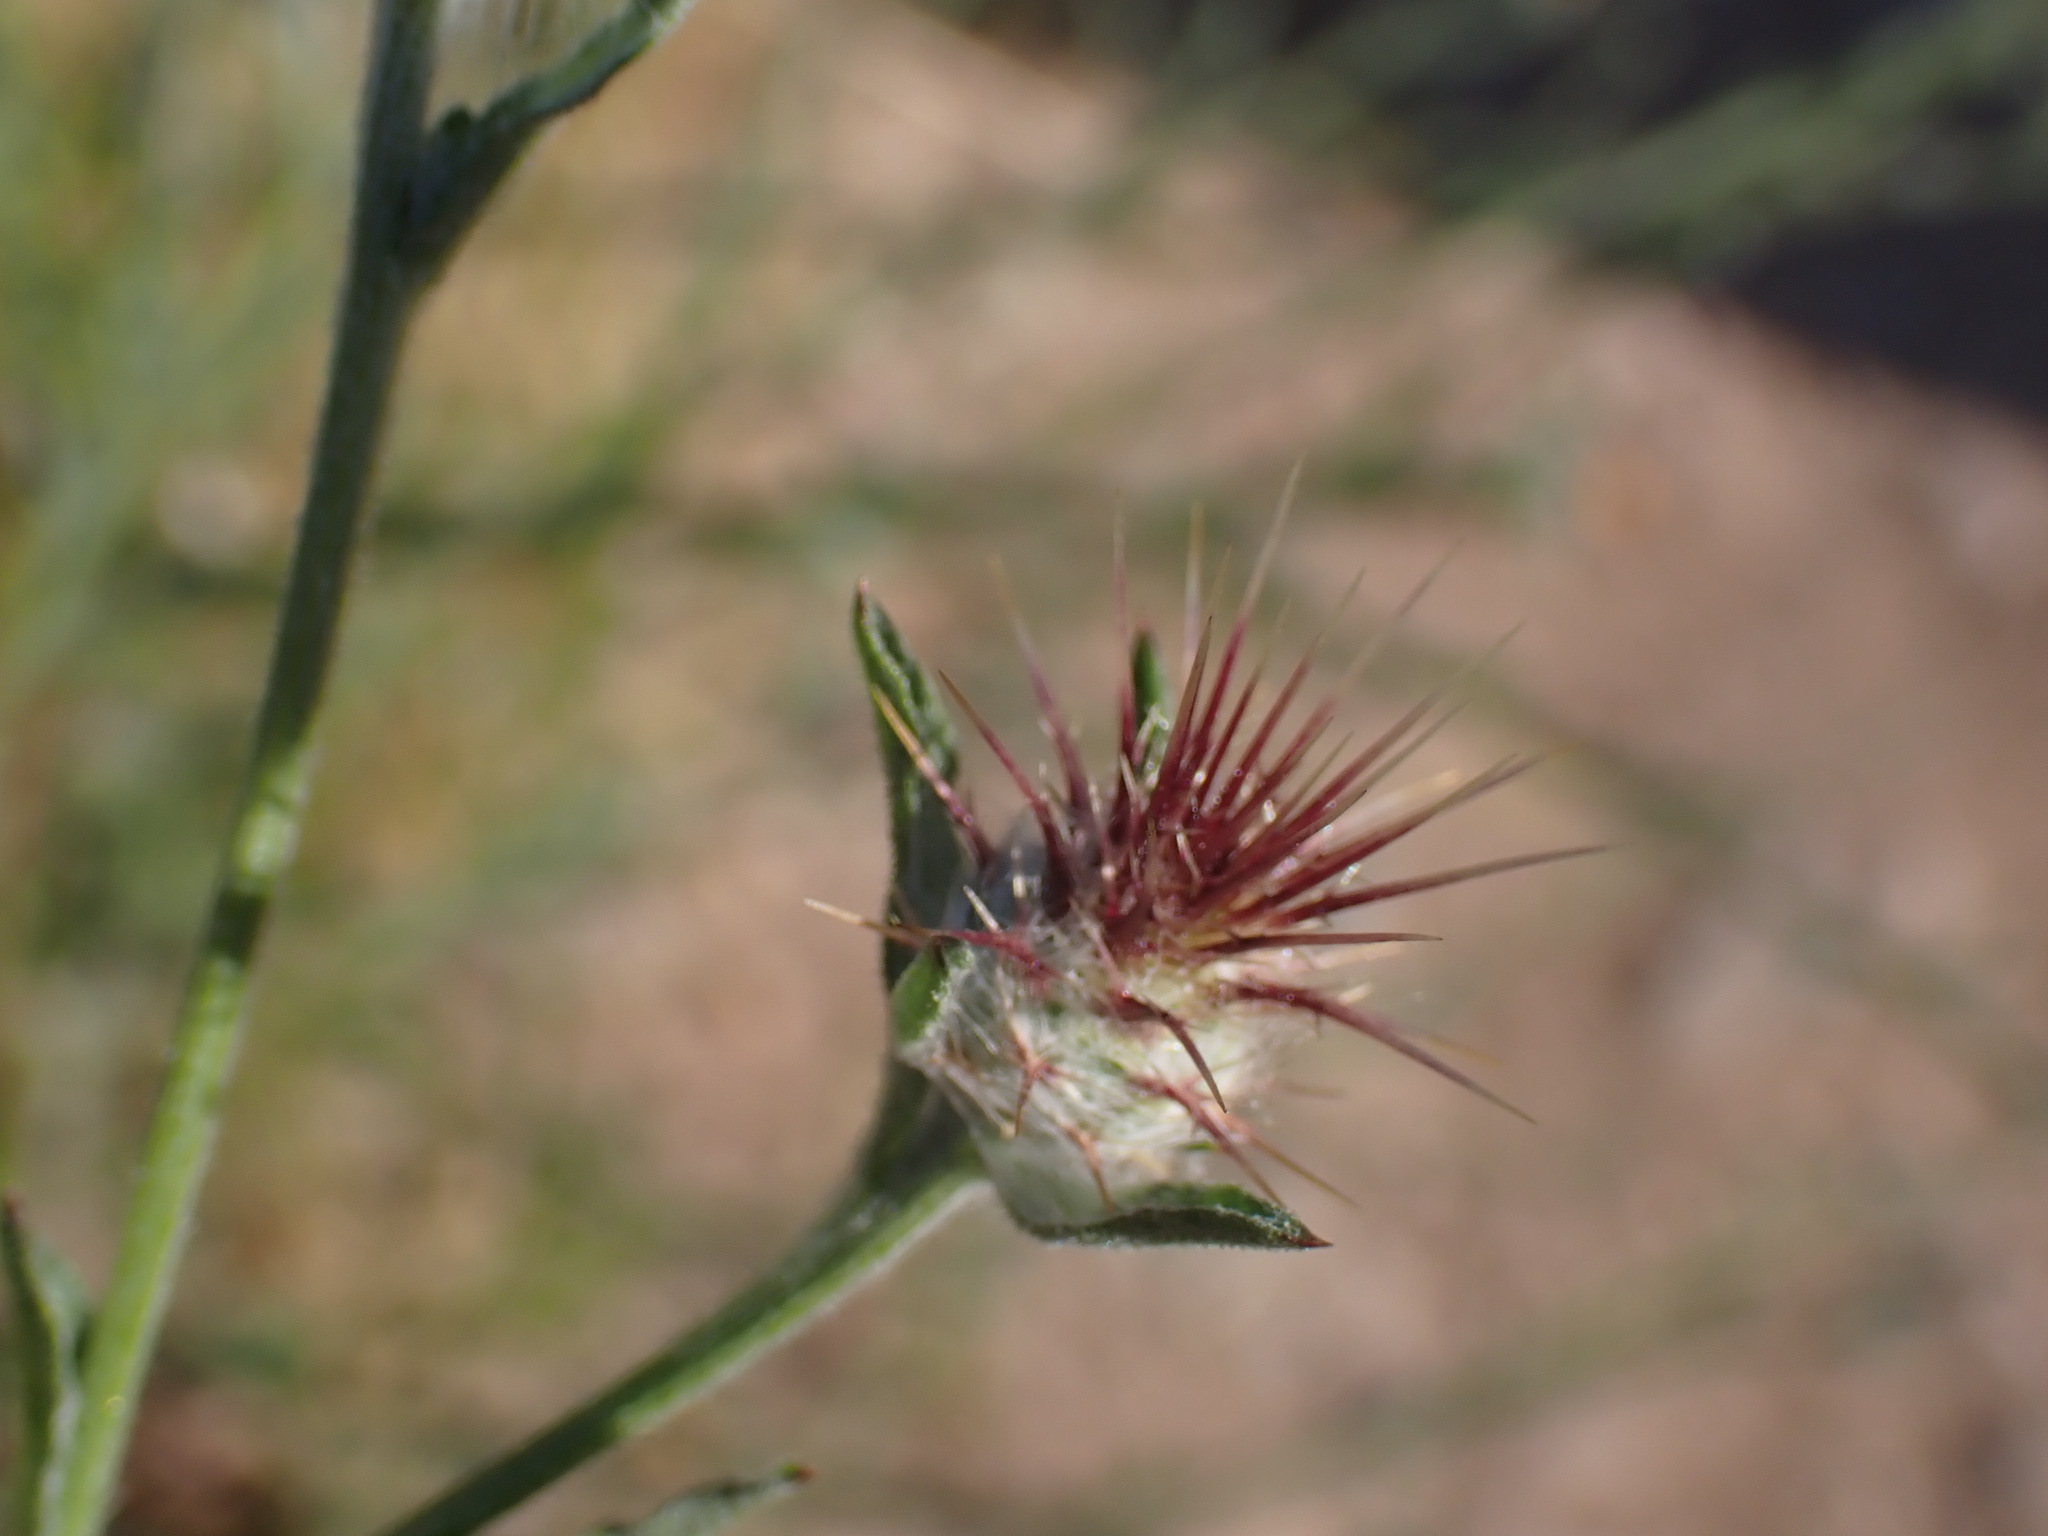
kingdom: Plantae
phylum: Tracheophyta
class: Magnoliopsida
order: Asterales
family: Asteraceae
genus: Centaurea
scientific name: Centaurea melitensis
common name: Maltese star-thistle
